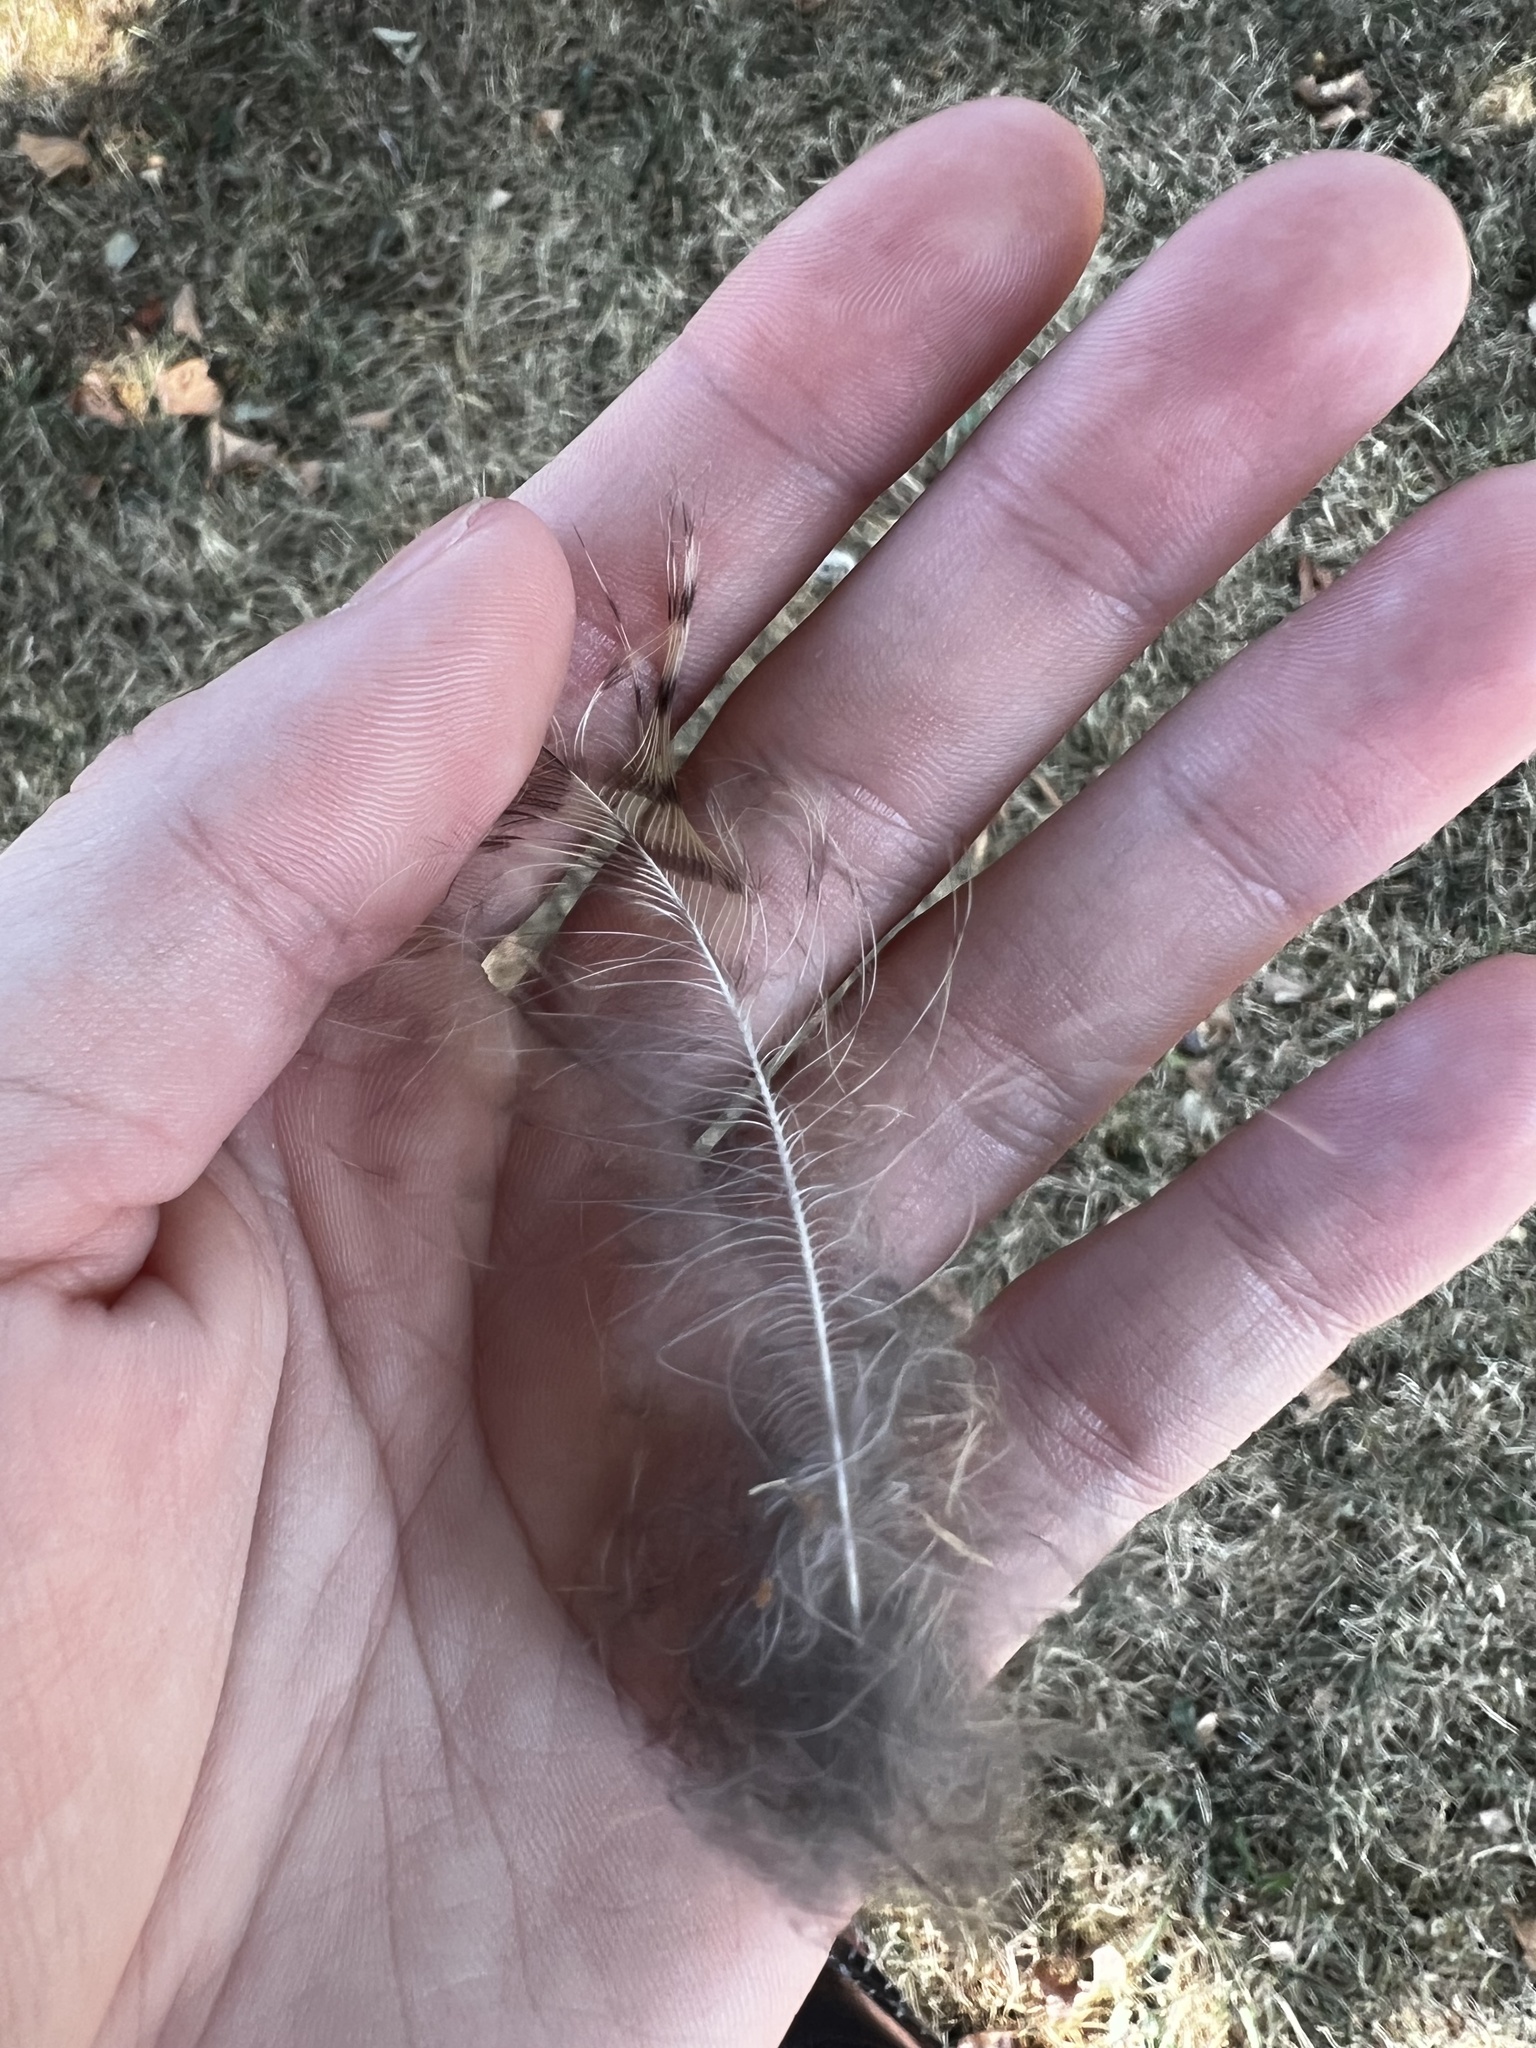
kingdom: Animalia
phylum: Chordata
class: Aves
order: Strigiformes
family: Strigidae
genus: Bubo
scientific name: Bubo virginianus
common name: Great horned owl
